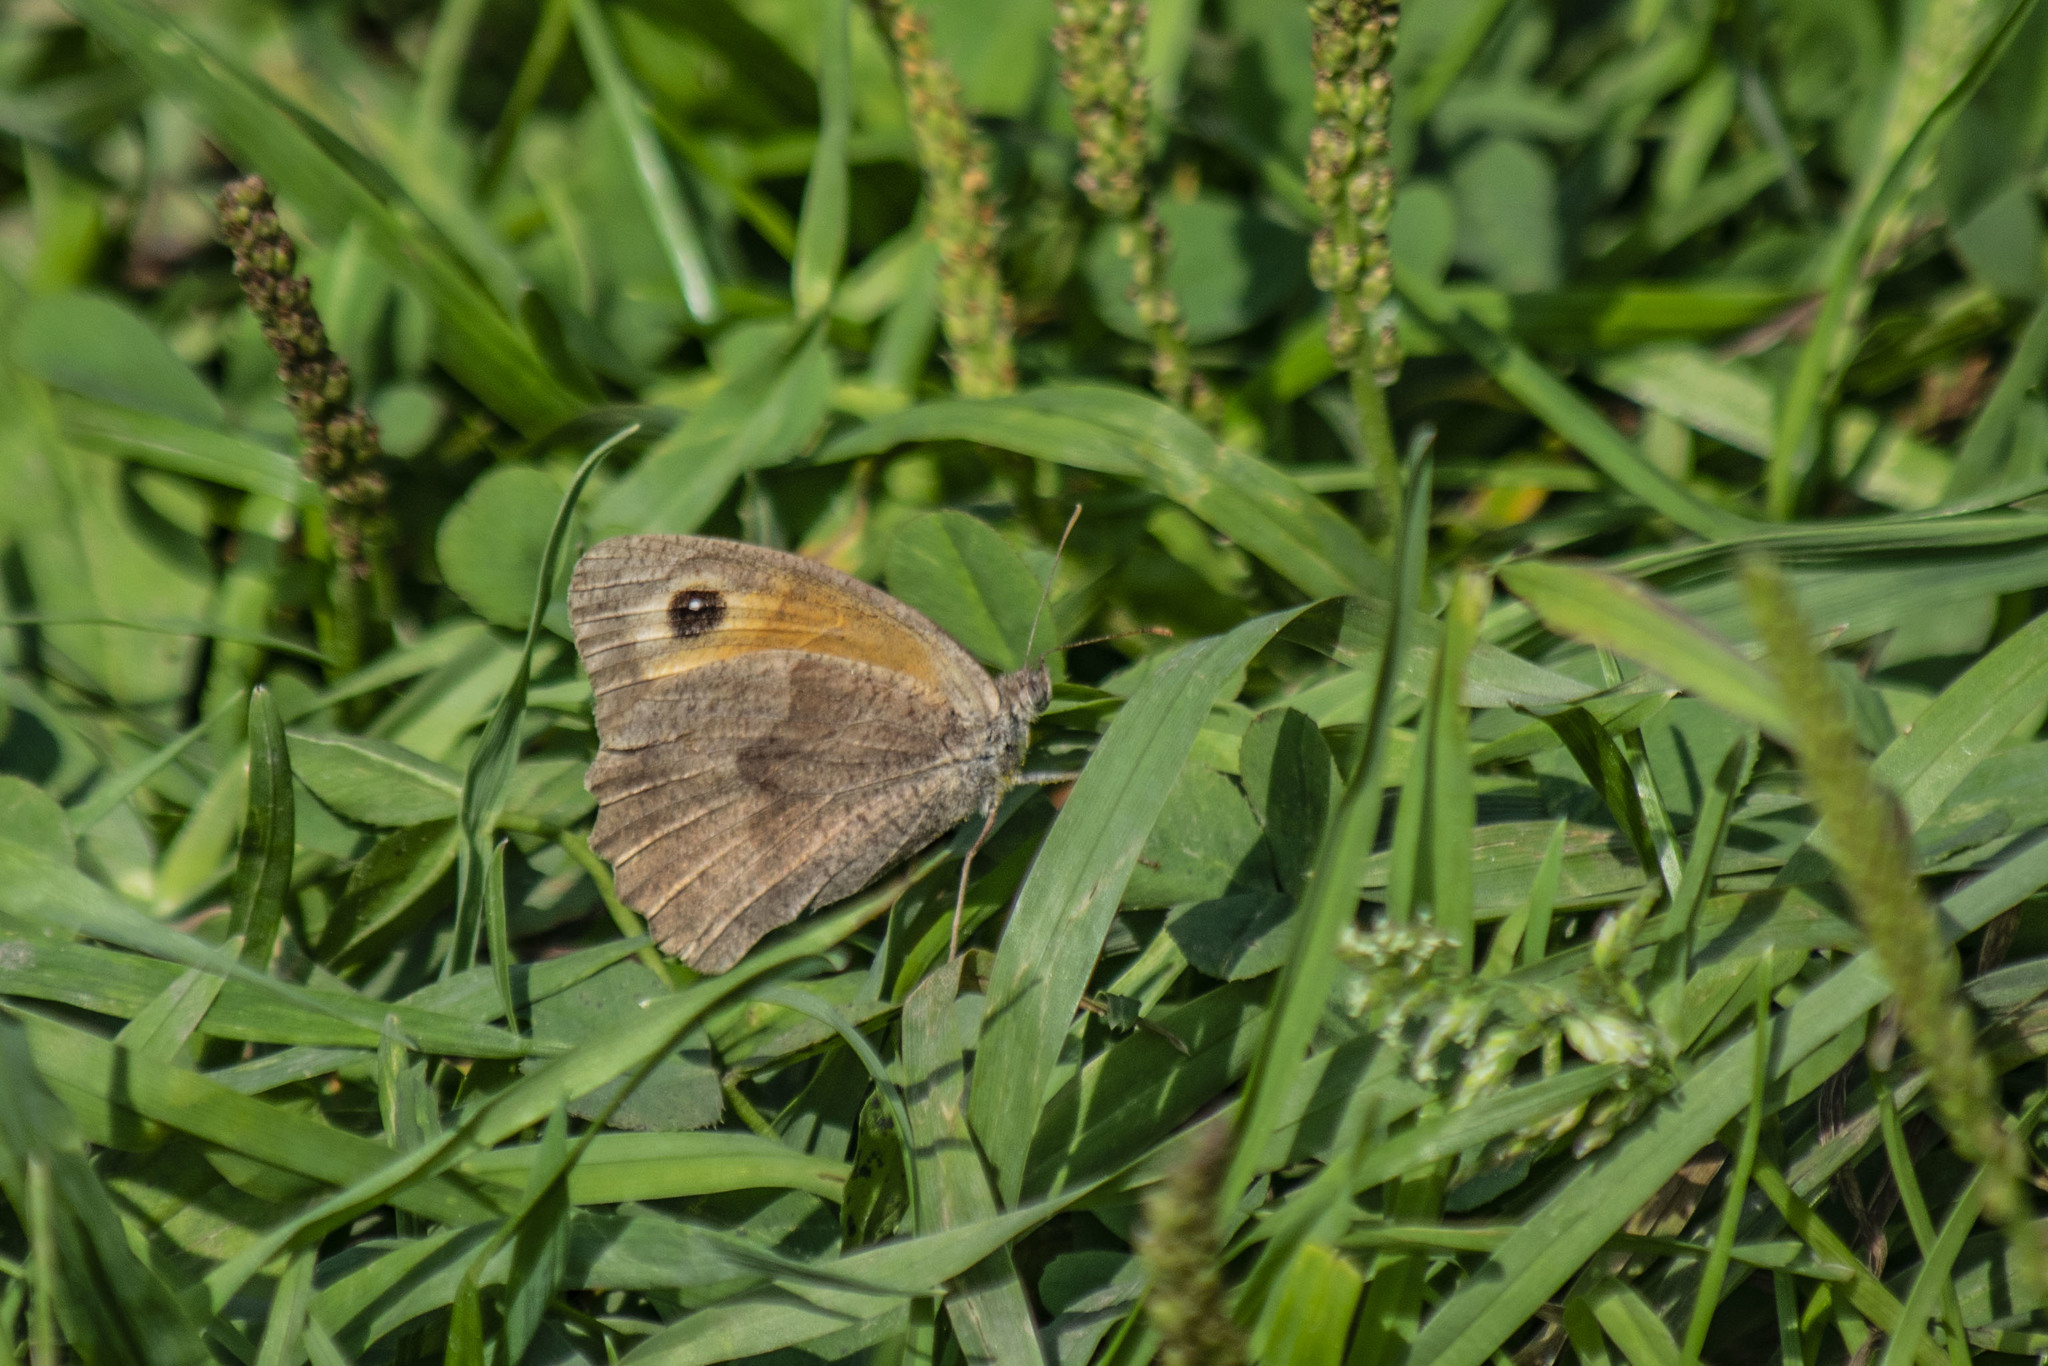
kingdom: Animalia
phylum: Arthropoda
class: Insecta
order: Lepidoptera
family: Nymphalidae
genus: Maniola
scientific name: Maniola jurtina
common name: Meadow brown
